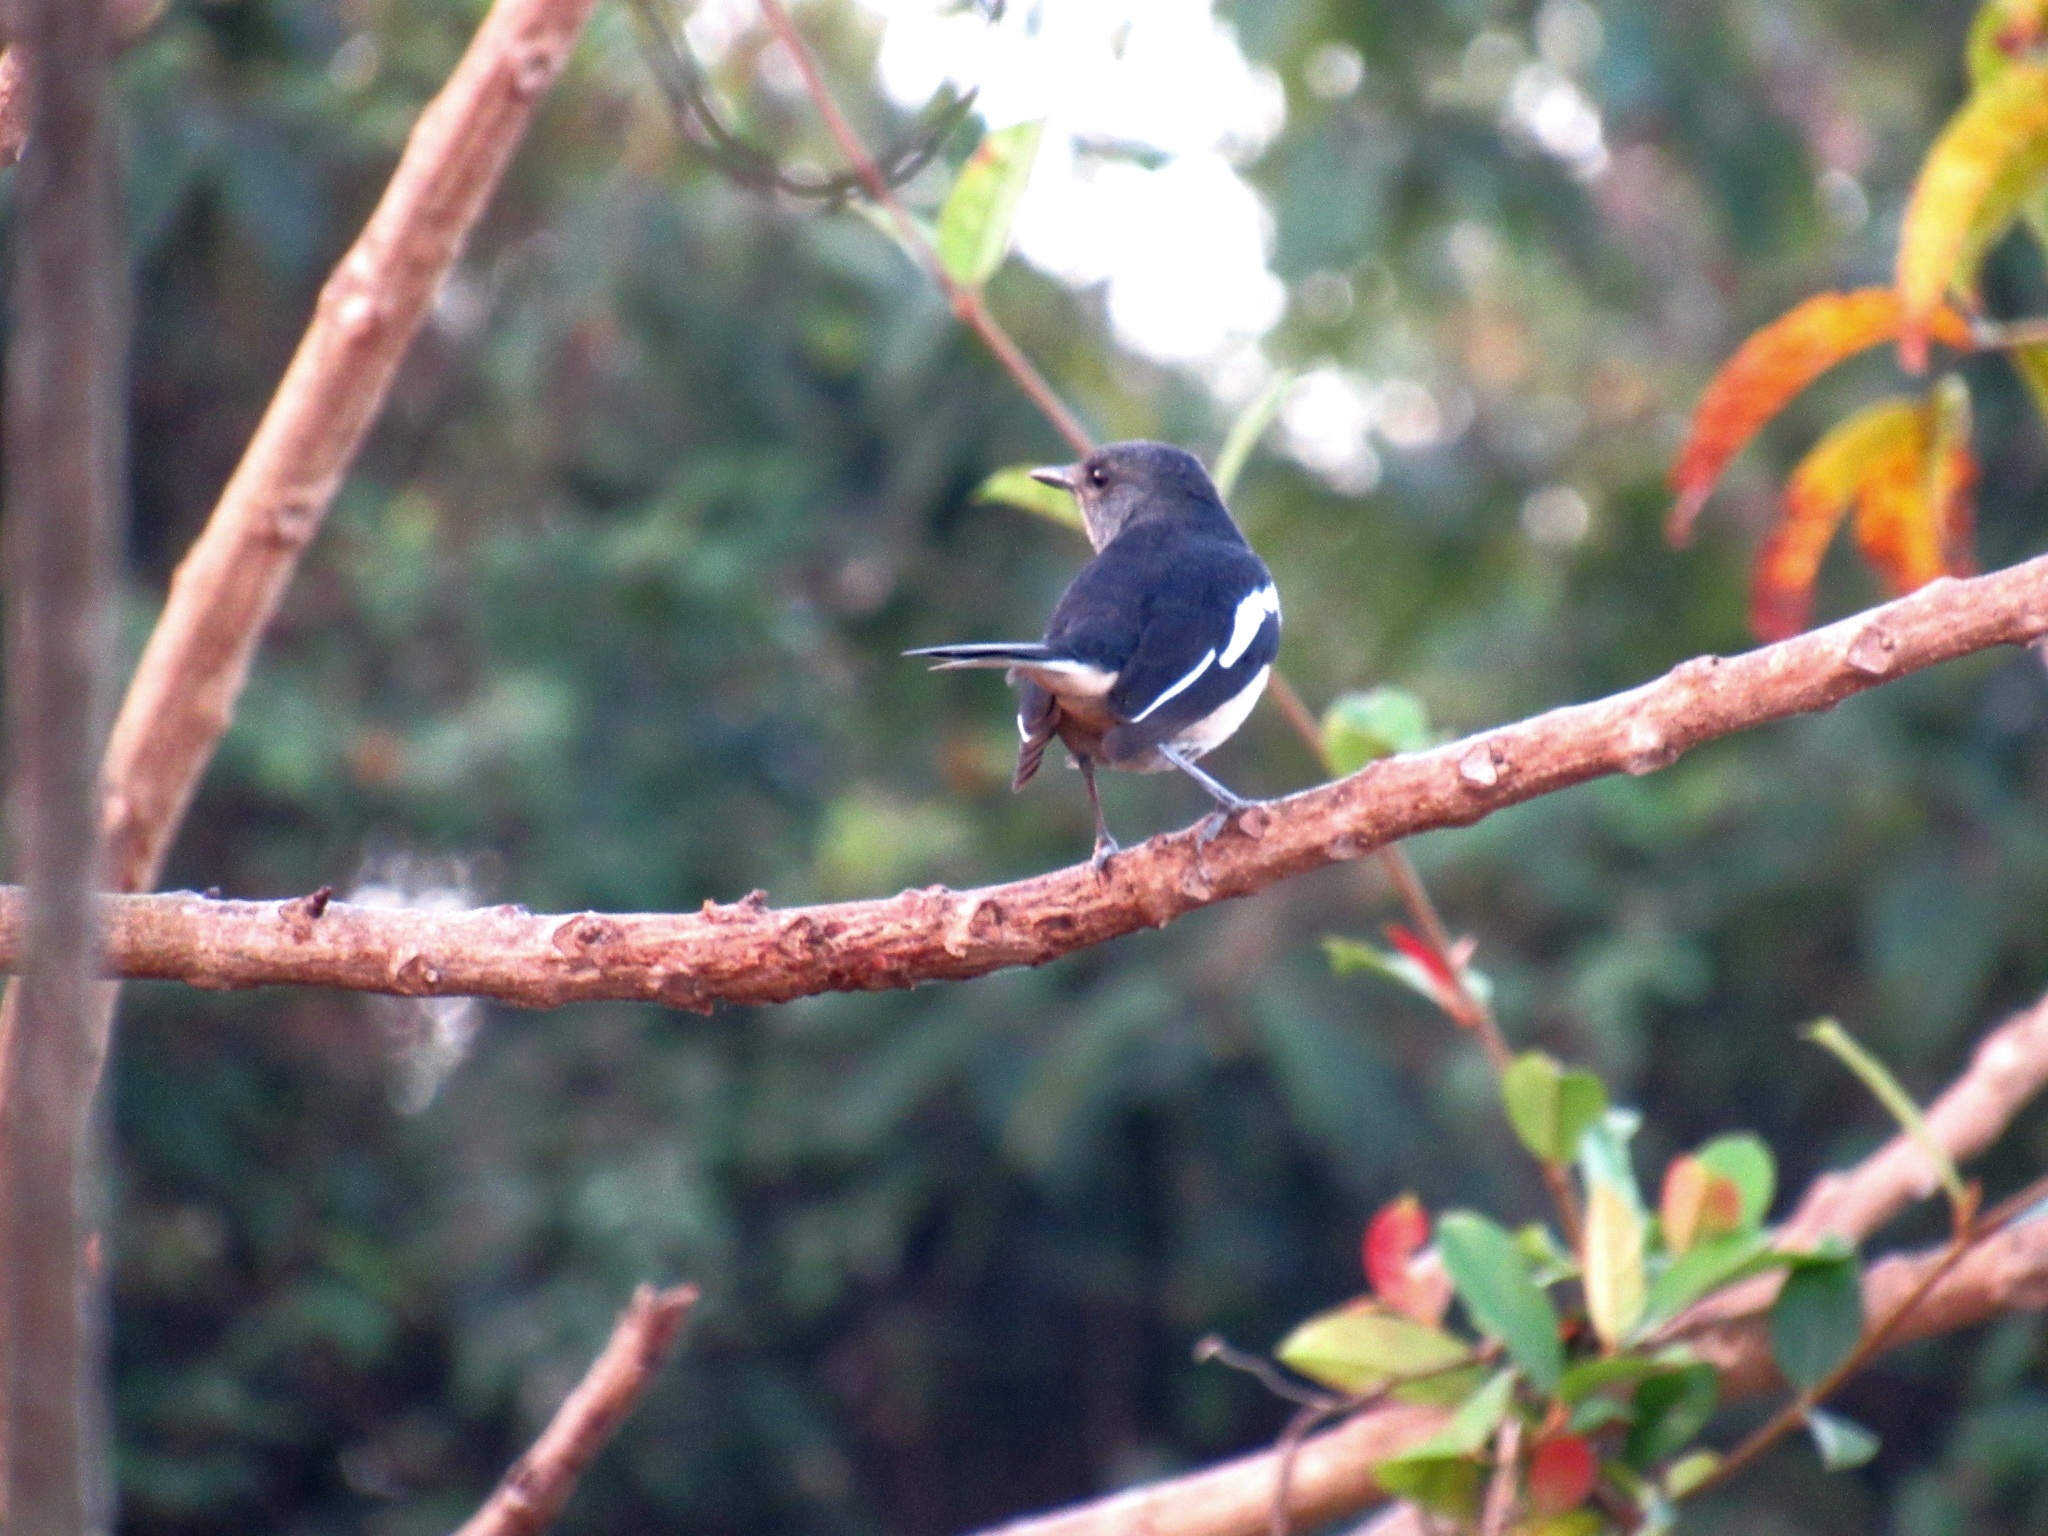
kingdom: Animalia
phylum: Chordata
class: Aves
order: Passeriformes
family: Muscicapidae
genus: Copsychus
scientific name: Copsychus saularis
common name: Oriental magpie-robin
